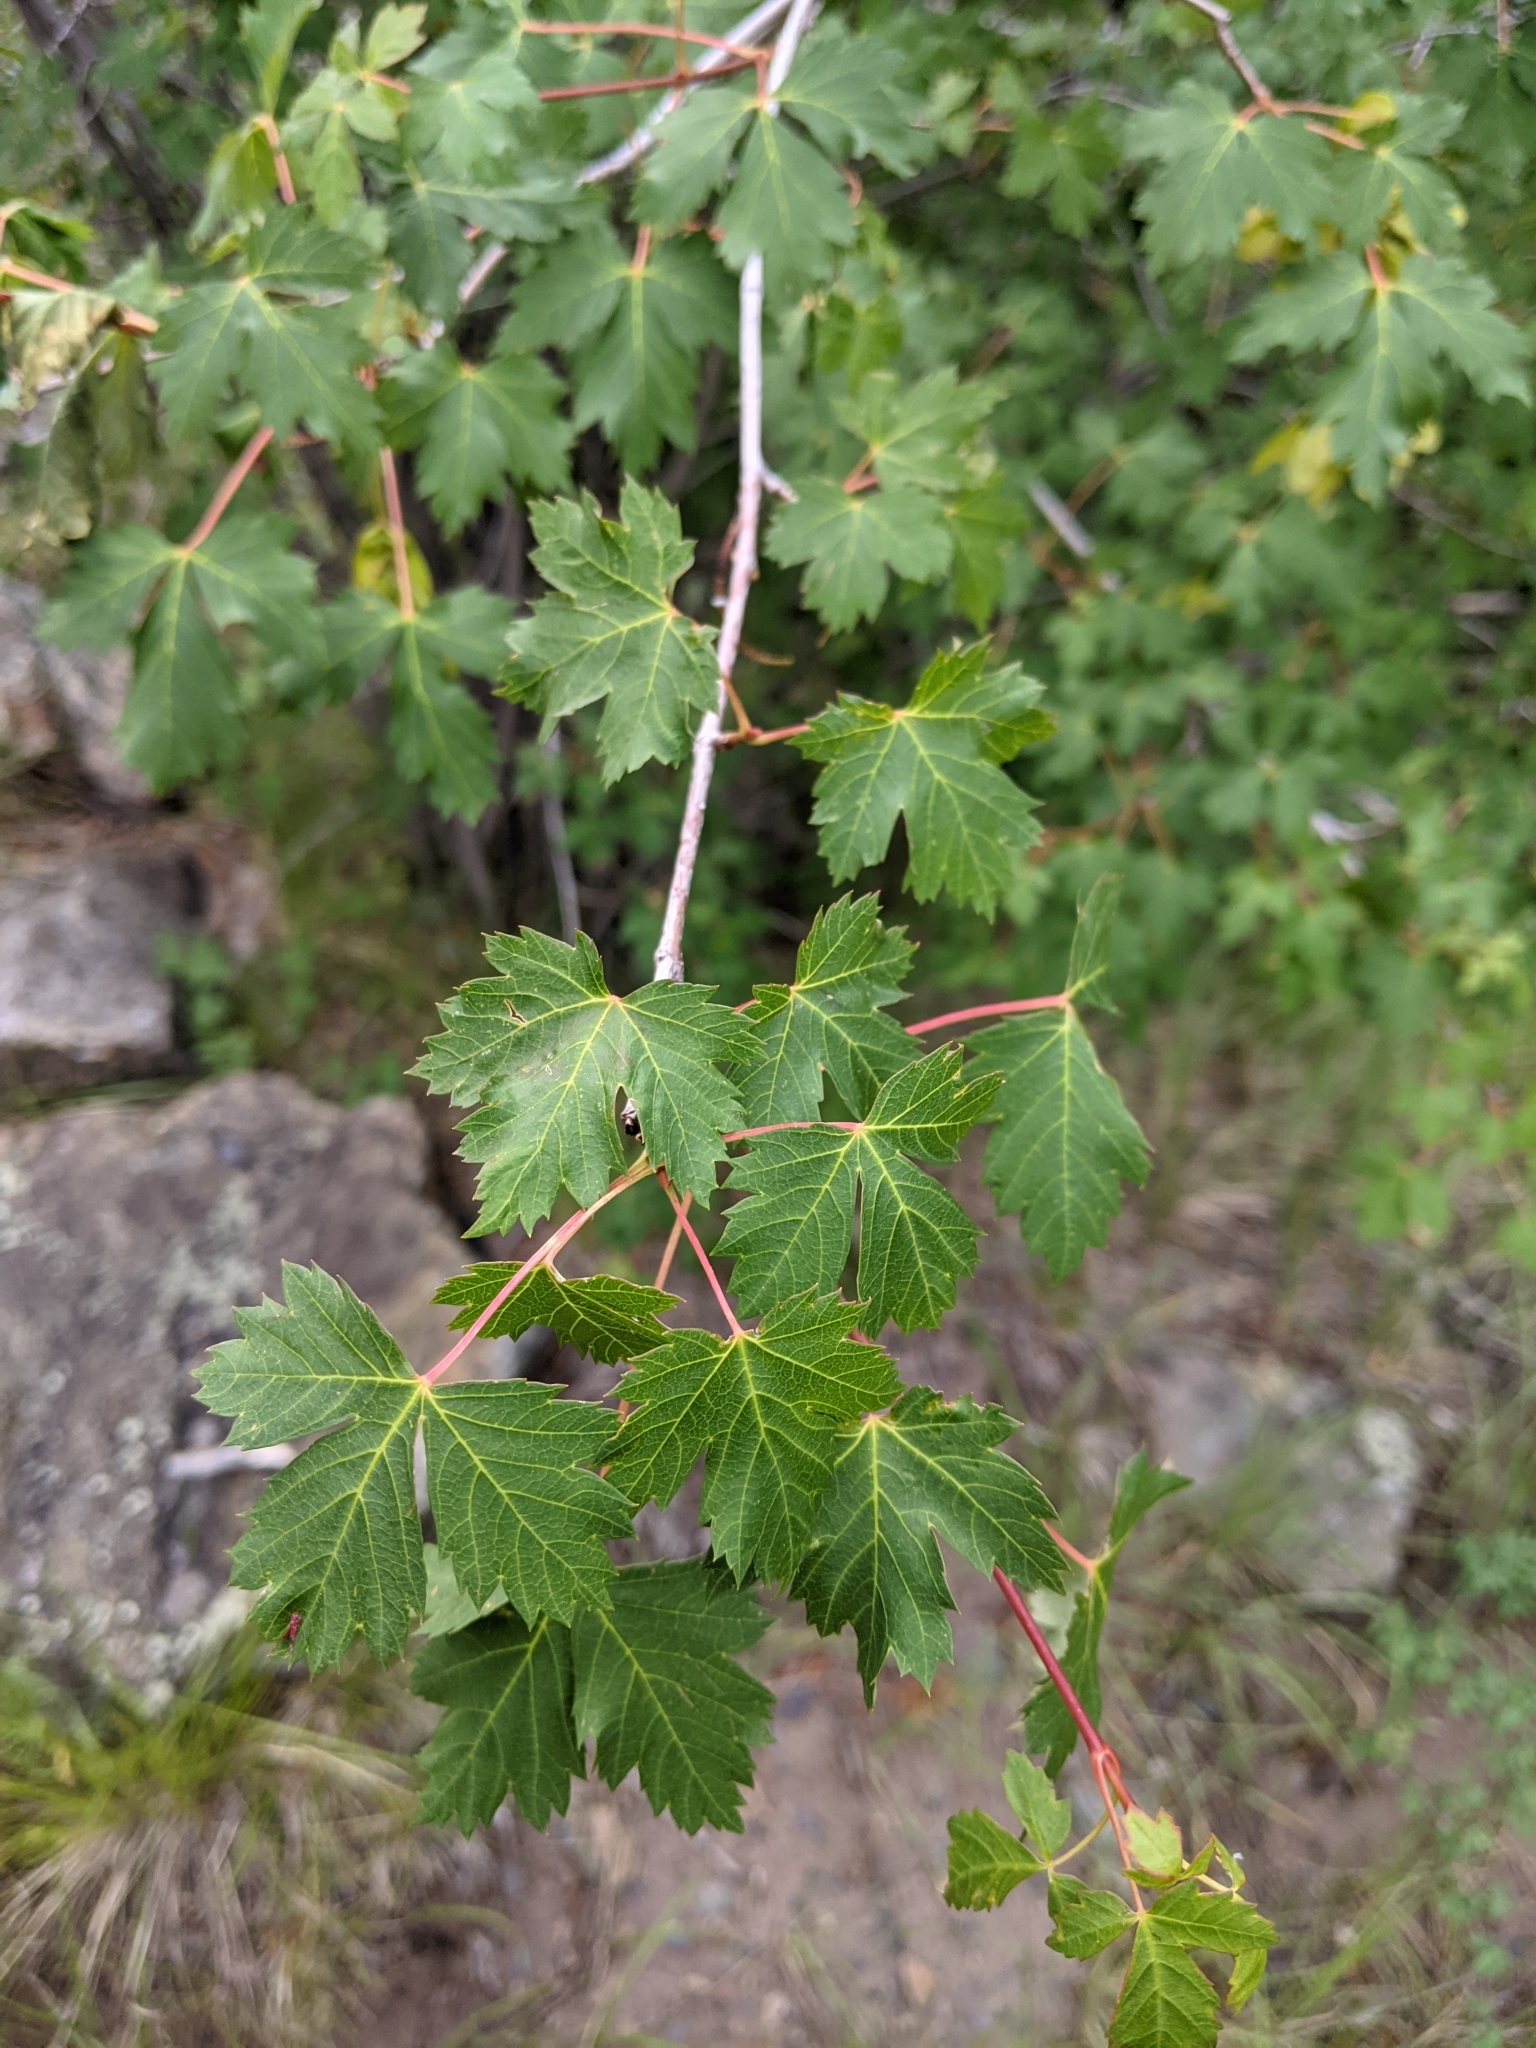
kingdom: Plantae
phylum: Tracheophyta
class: Magnoliopsida
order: Sapindales
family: Sapindaceae
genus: Acer
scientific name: Acer glabrum
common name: Rocky mountain maple
